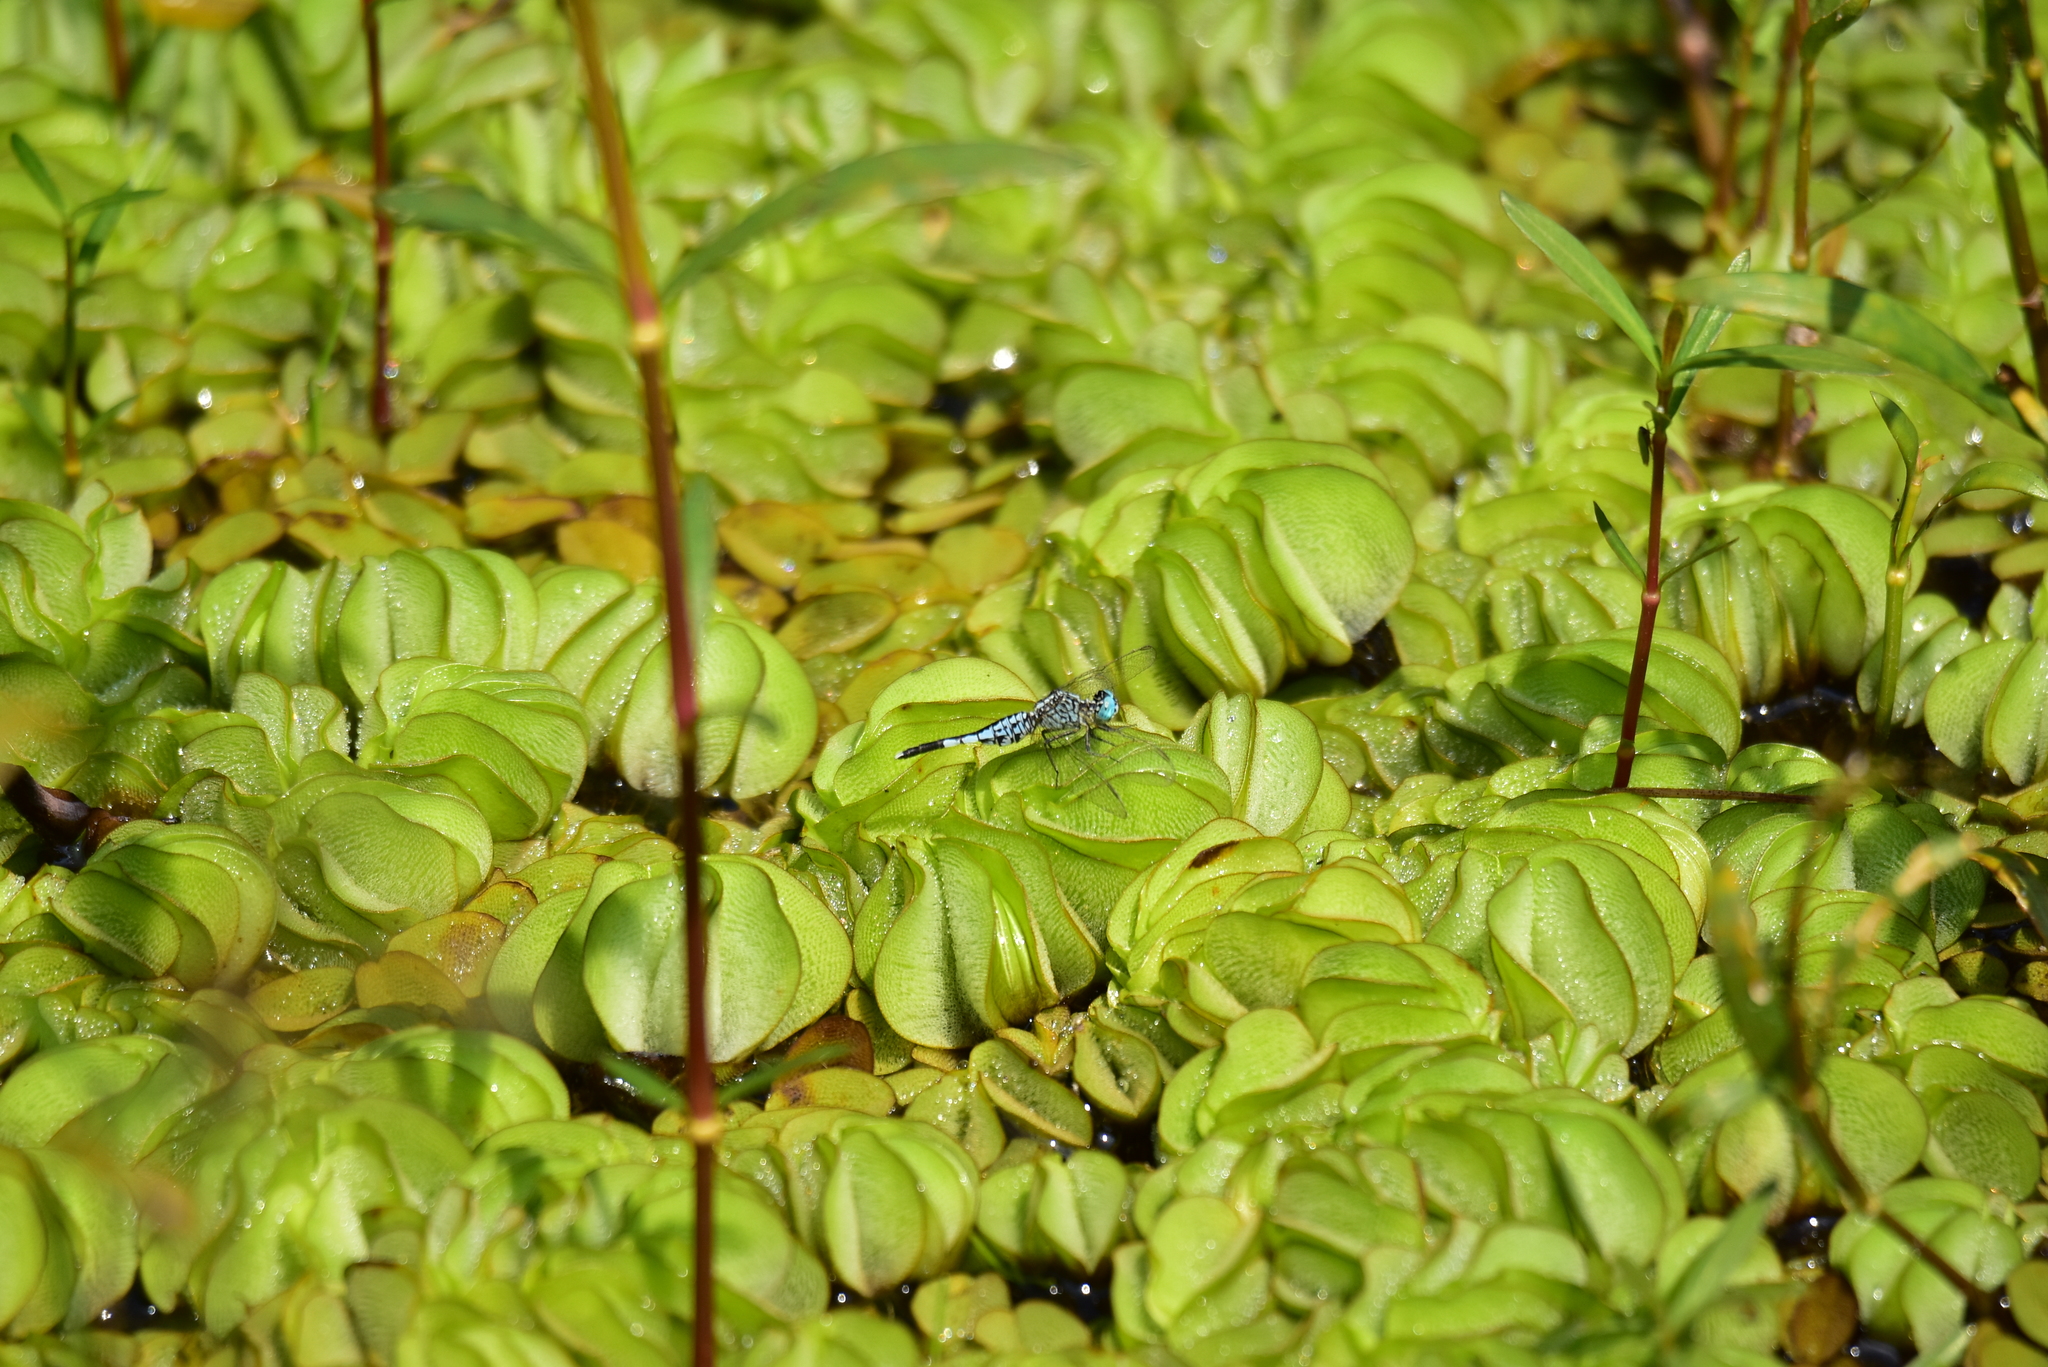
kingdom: Animalia
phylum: Arthropoda
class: Insecta
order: Odonata
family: Libellulidae
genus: Acisoma
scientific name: Acisoma panorpoides
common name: Asian pintail
